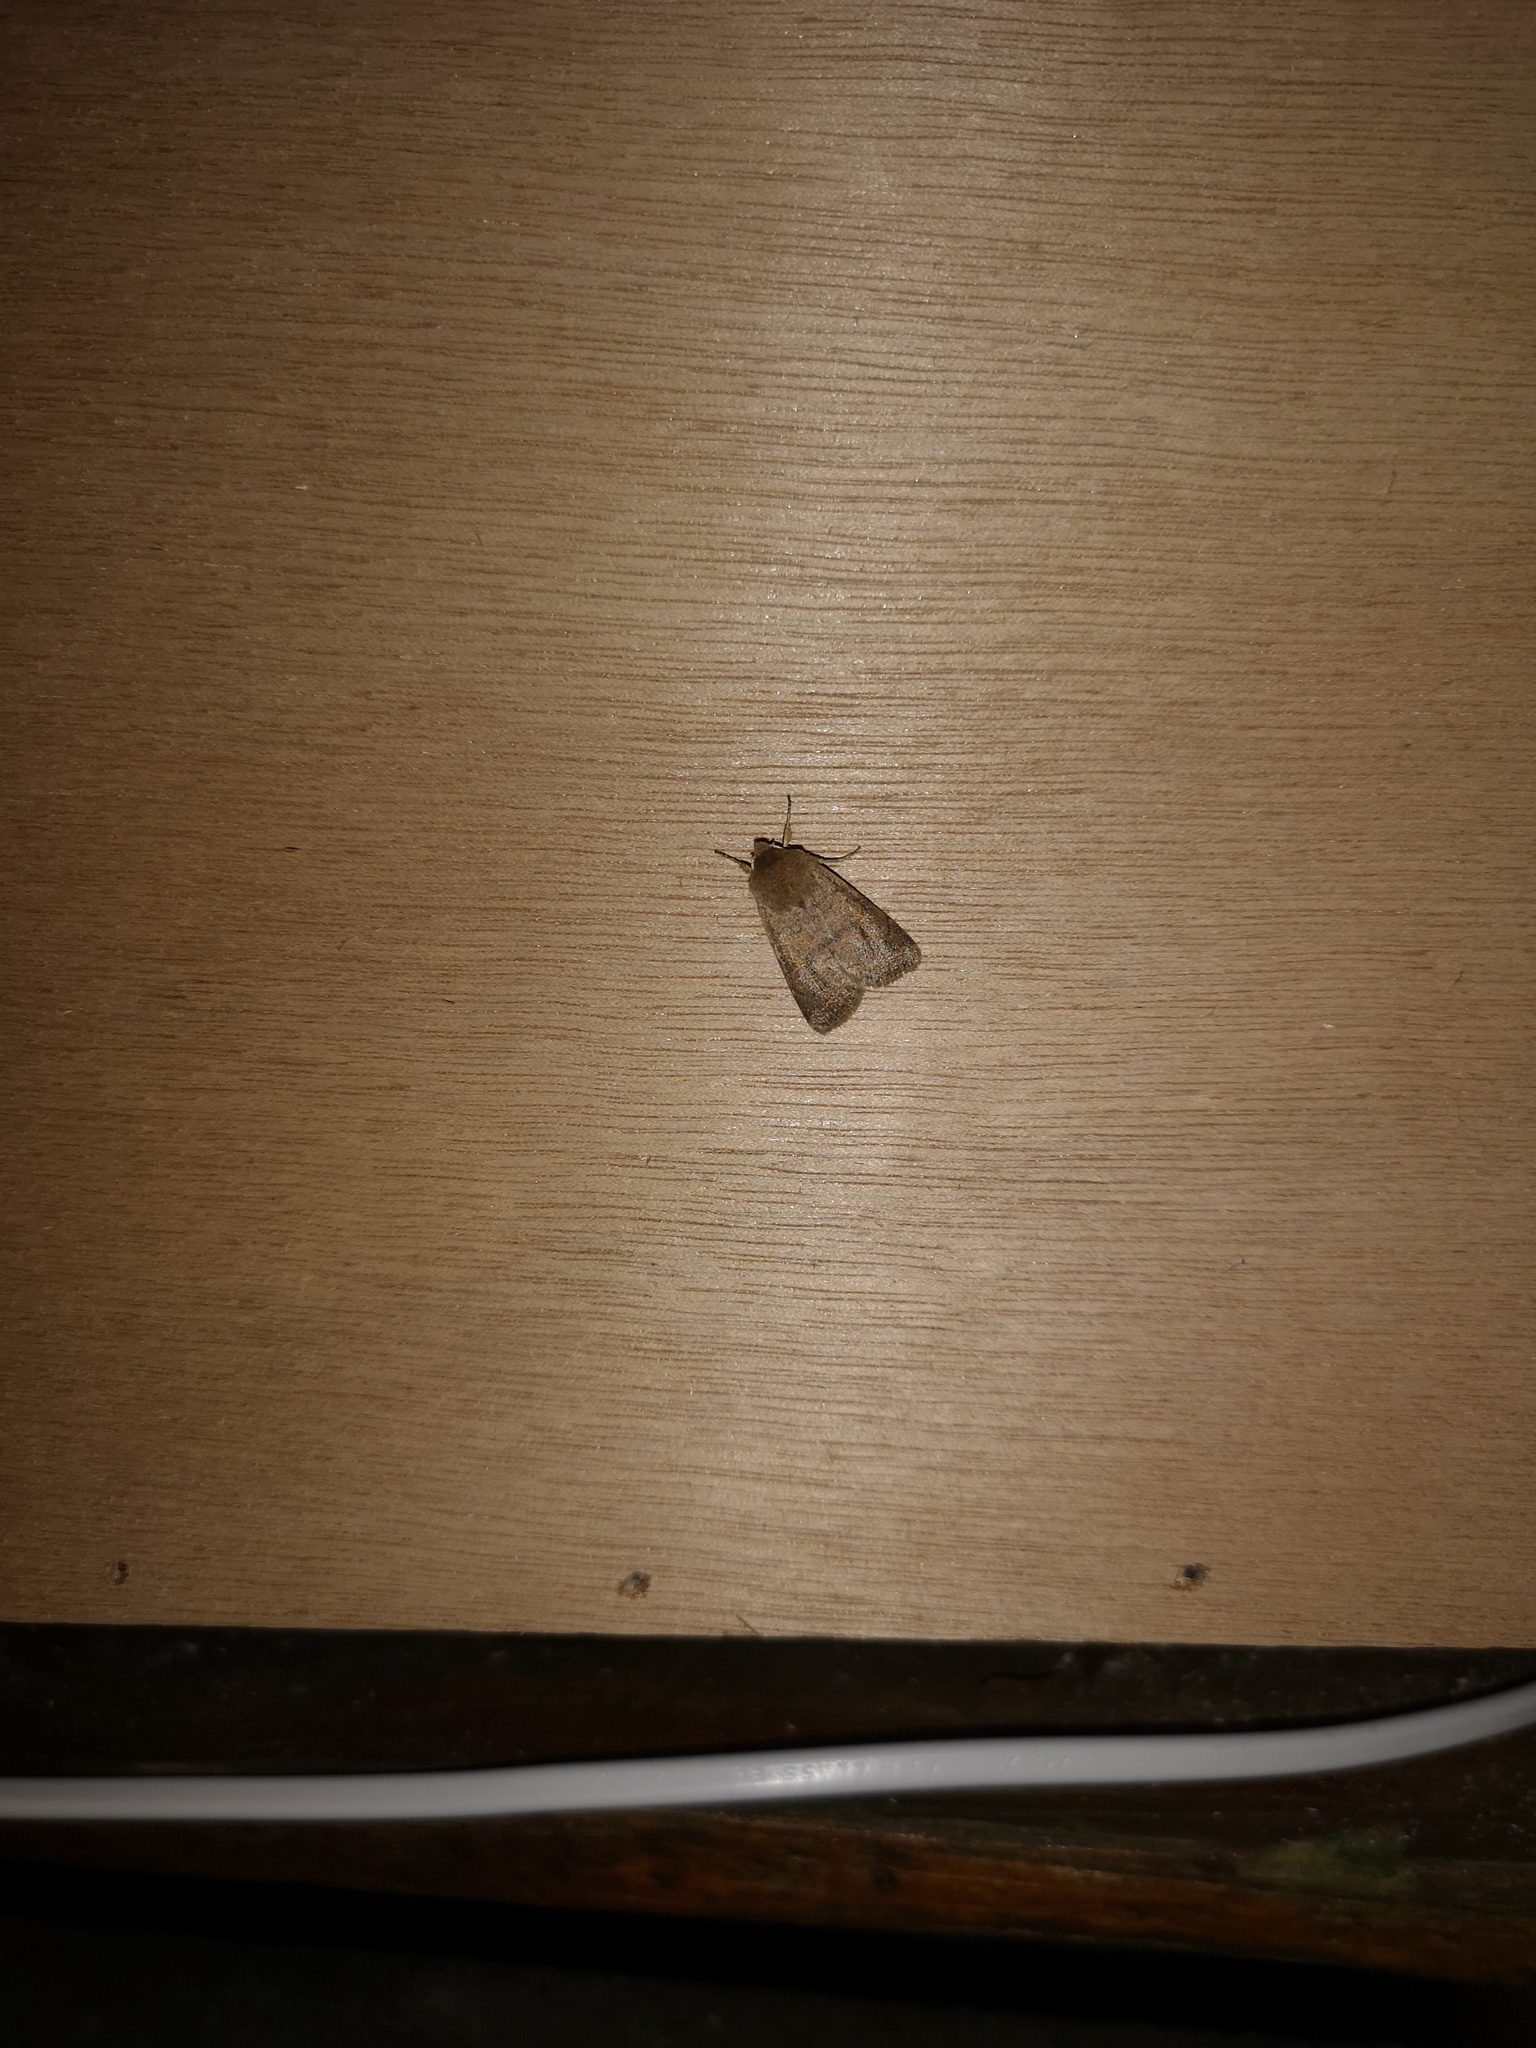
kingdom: Animalia
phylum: Arthropoda
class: Insecta
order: Lepidoptera
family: Noctuidae
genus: Orthosia
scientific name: Orthosia cerasi
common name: Common quaker
